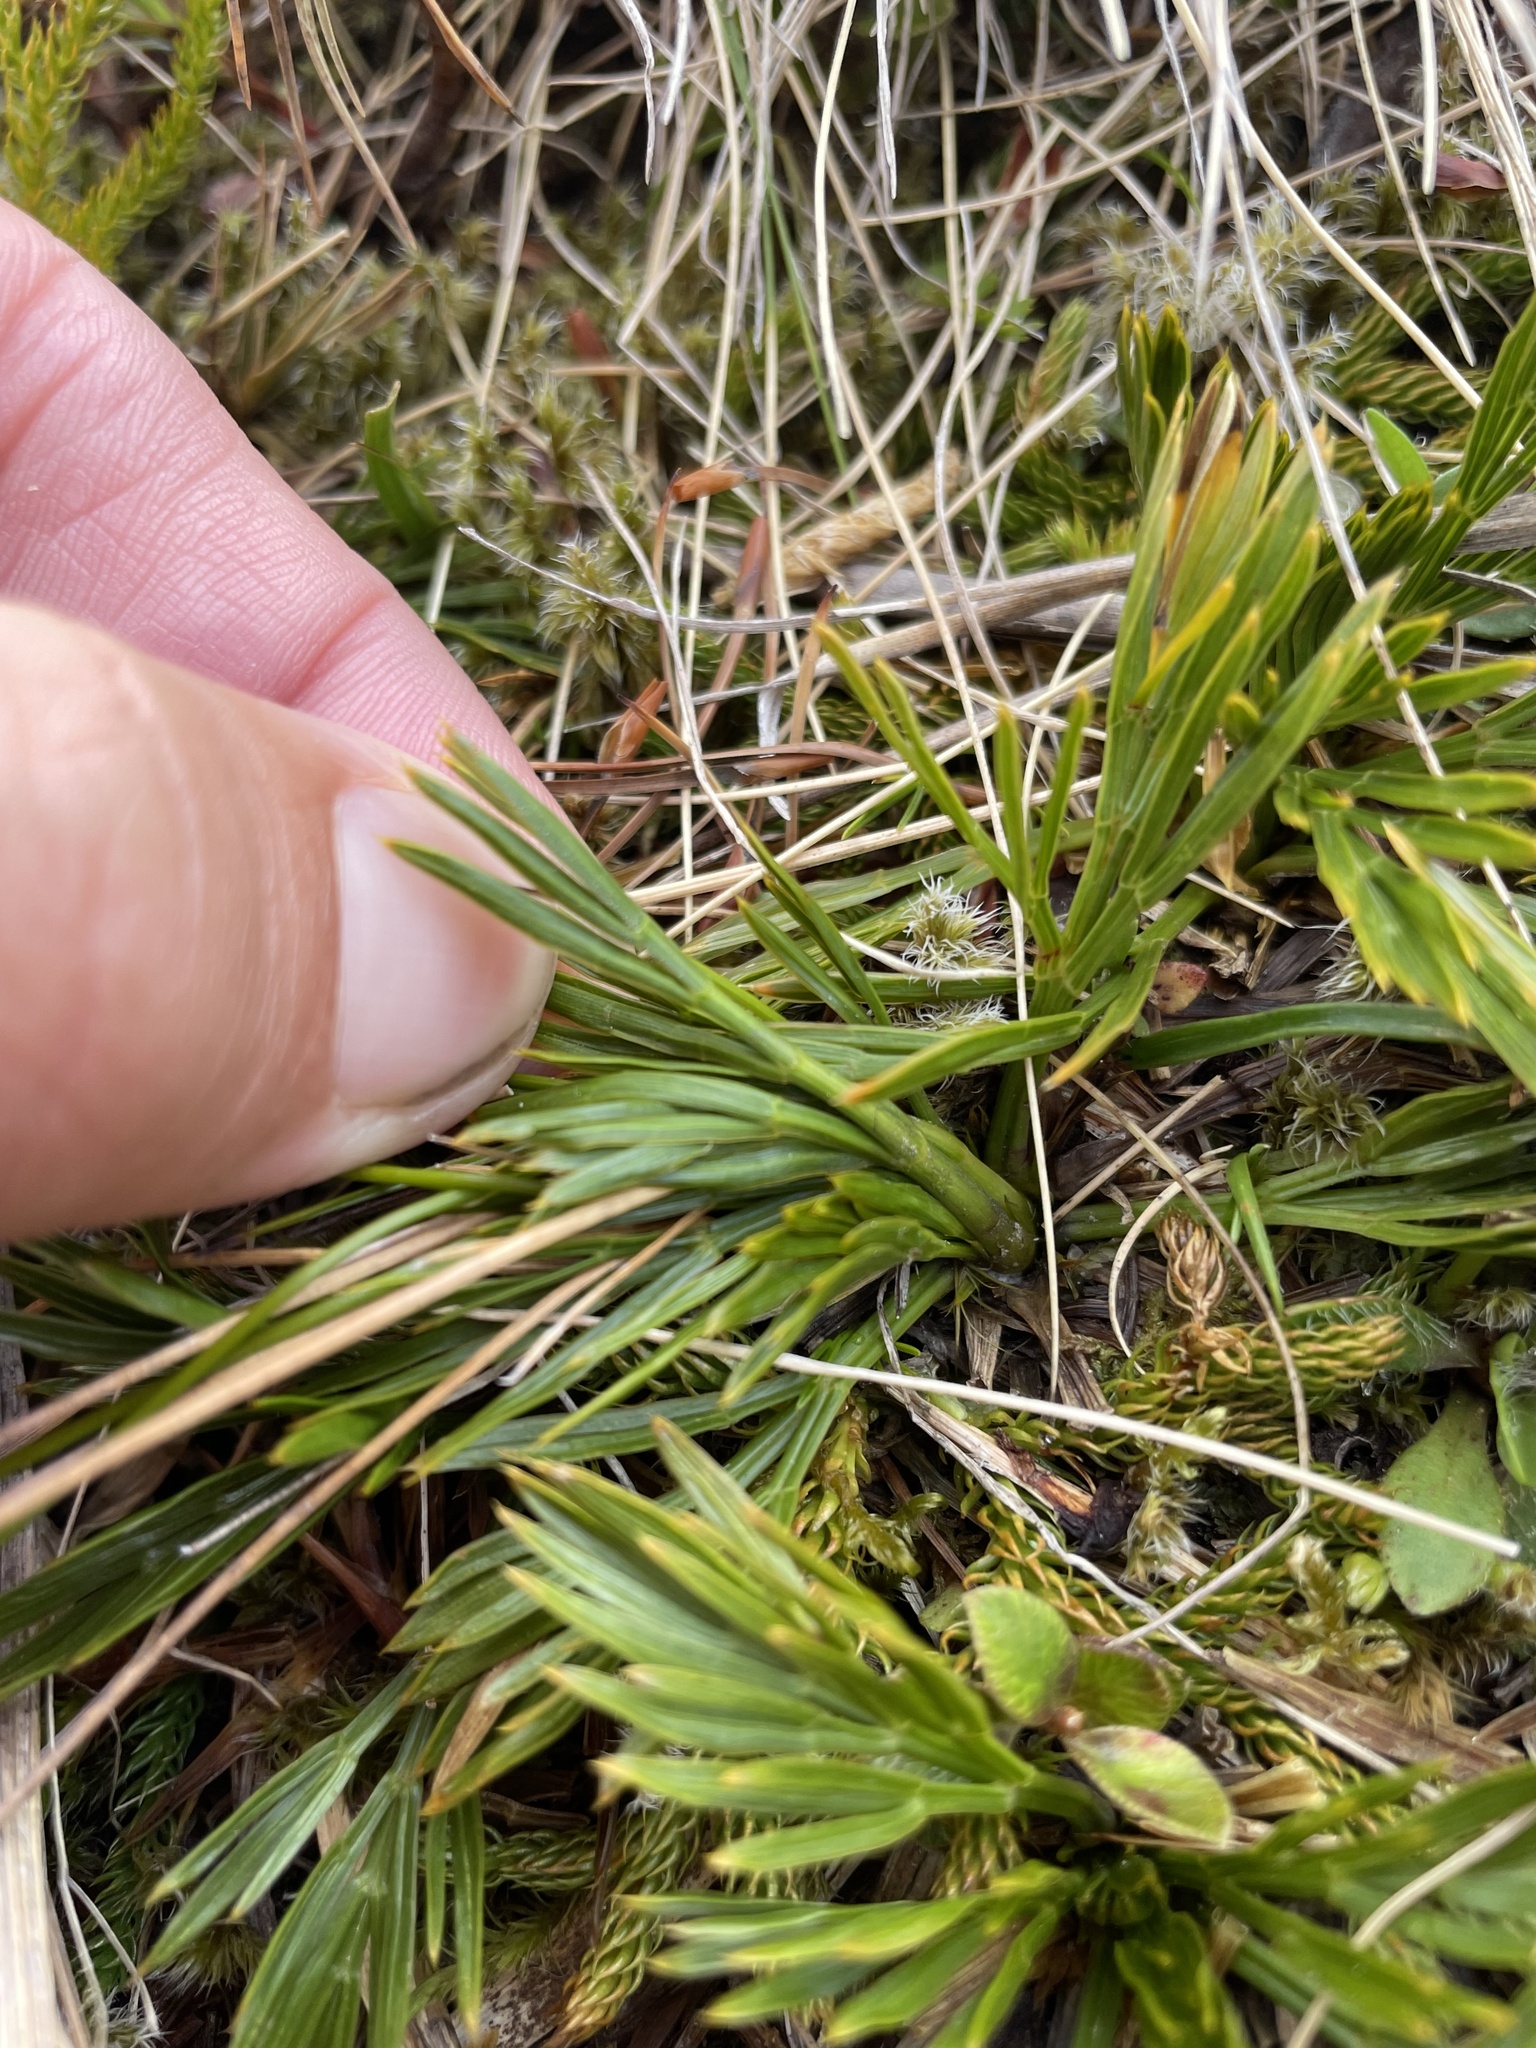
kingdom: Plantae
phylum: Tracheophyta
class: Magnoliopsida
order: Apiales
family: Apiaceae
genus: Aciphylla
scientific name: Aciphylla divisa
